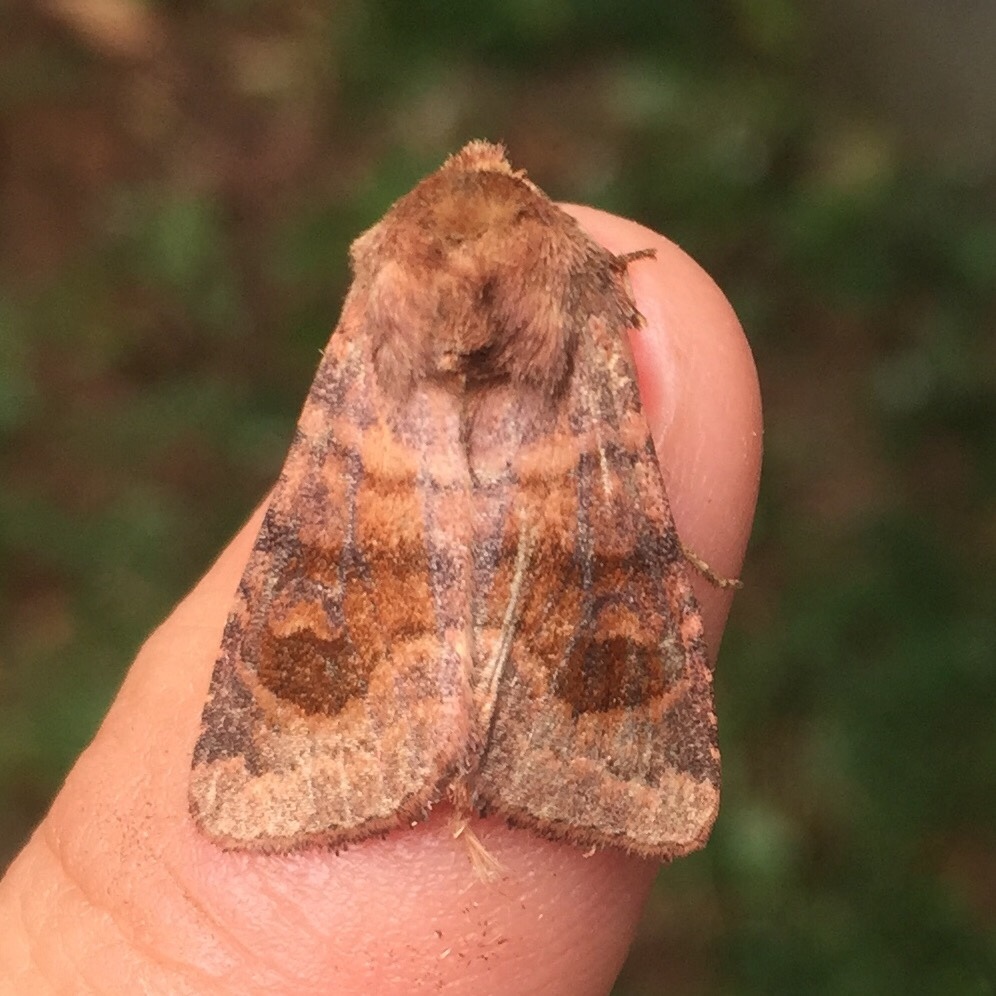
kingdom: Animalia
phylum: Arthropoda
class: Insecta
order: Lepidoptera
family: Noctuidae
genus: Nephelodes
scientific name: Nephelodes minians
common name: Bronzed cutworm
